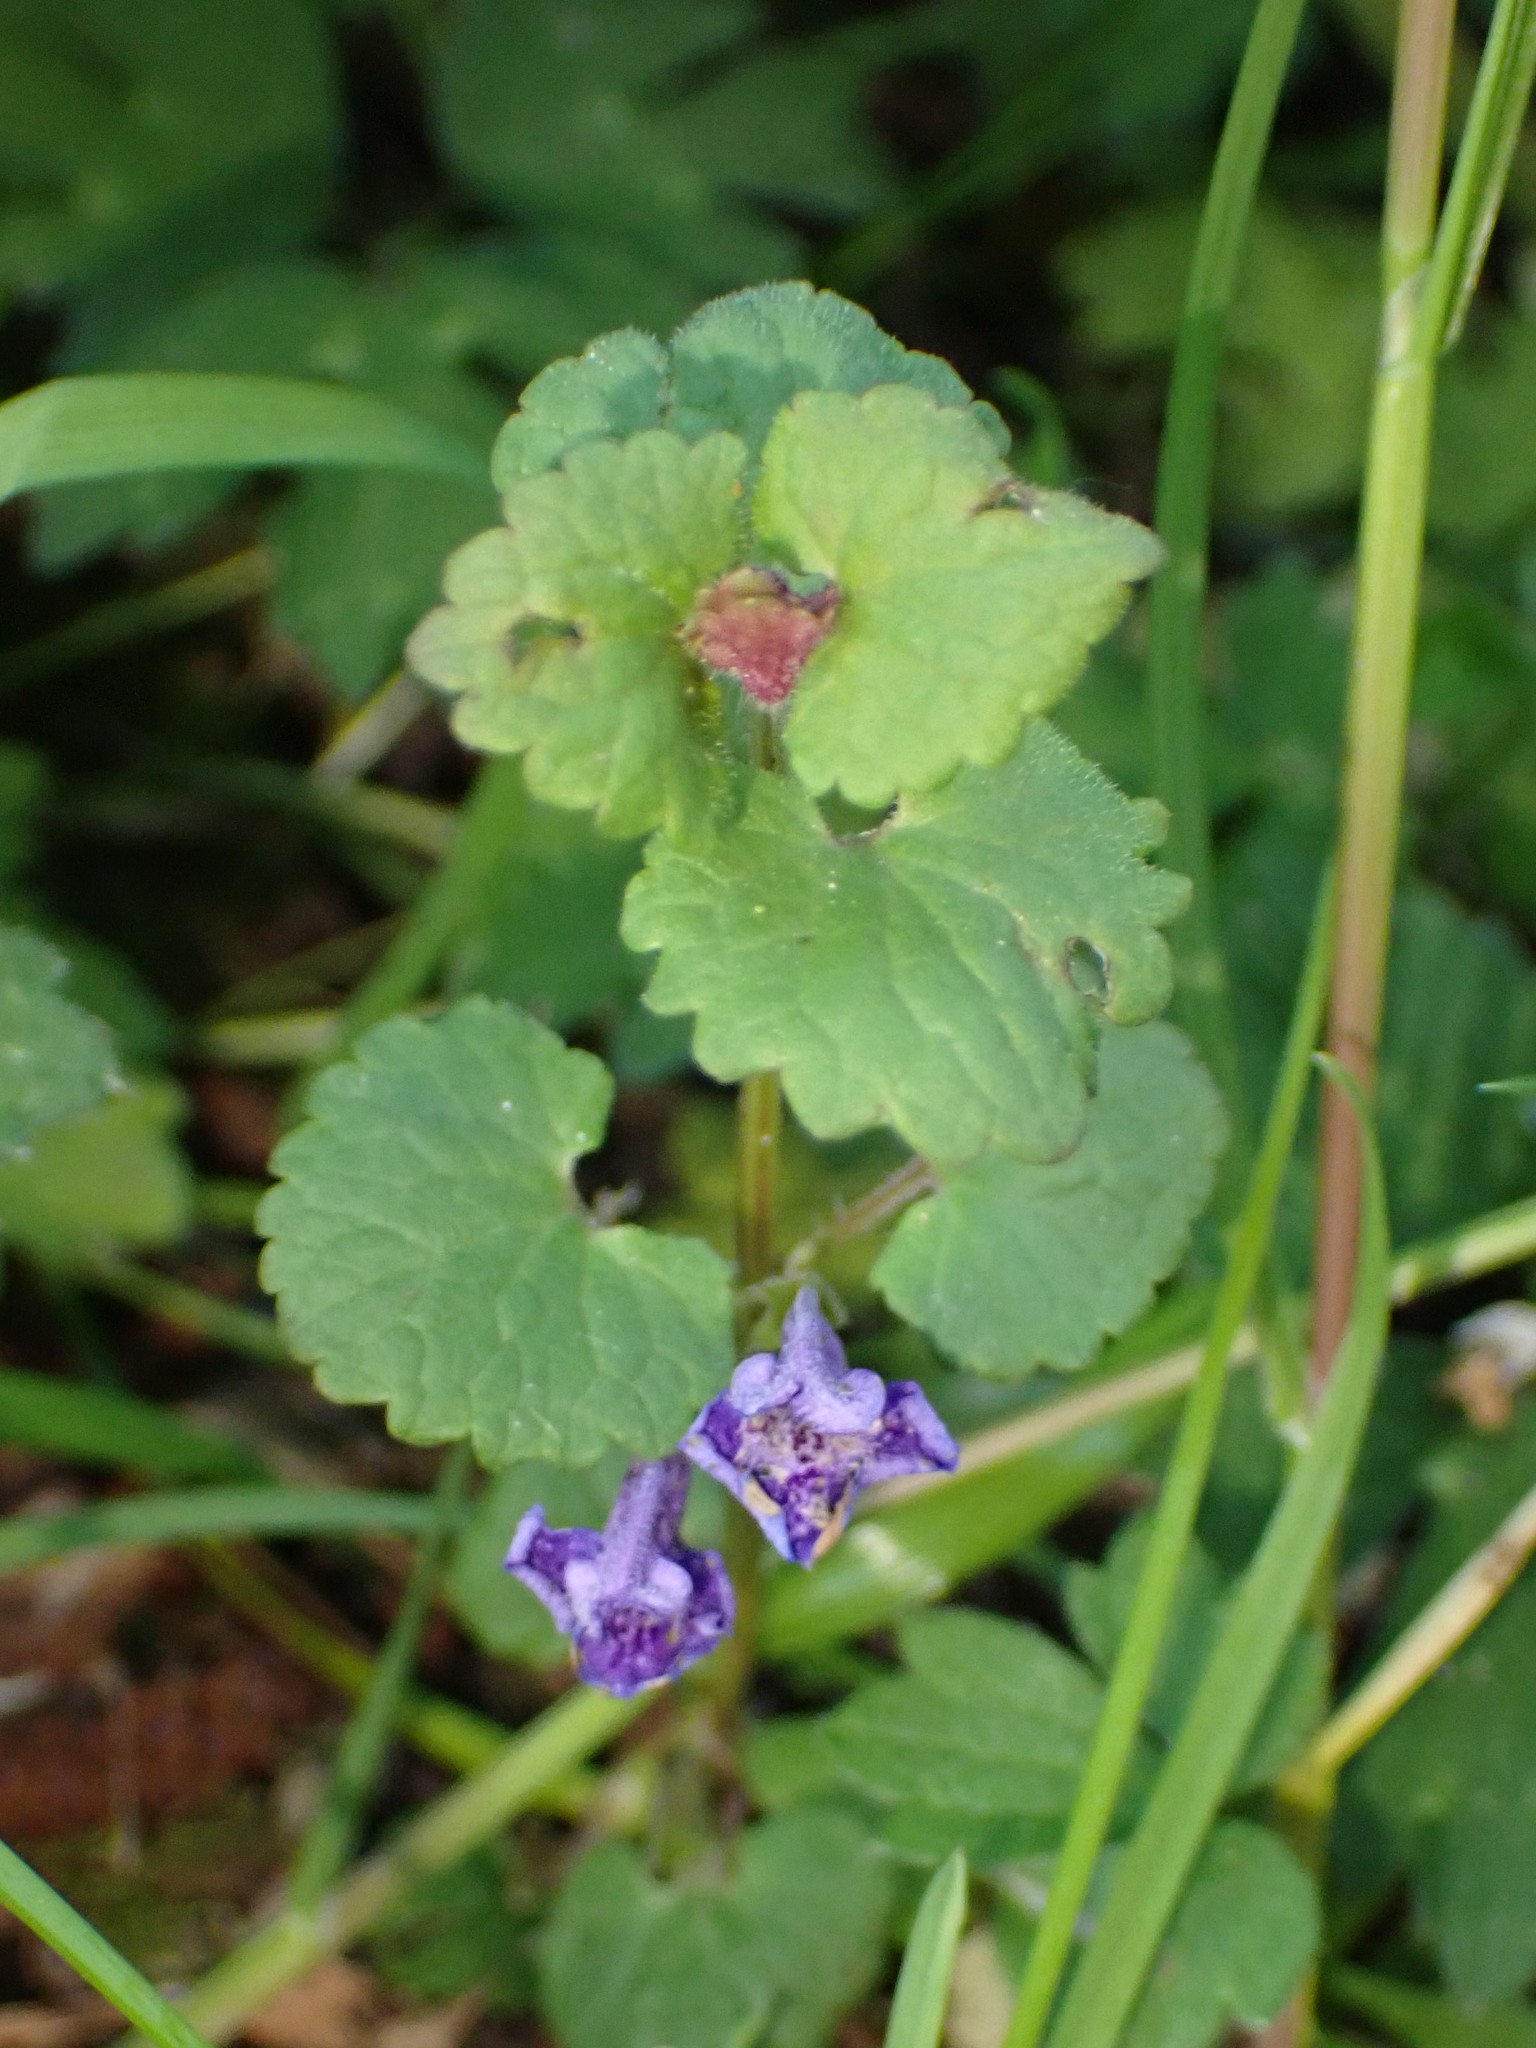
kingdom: Plantae
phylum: Tracheophyta
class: Magnoliopsida
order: Lamiales
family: Lamiaceae
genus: Glechoma
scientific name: Glechoma hederacea
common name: Ground ivy
